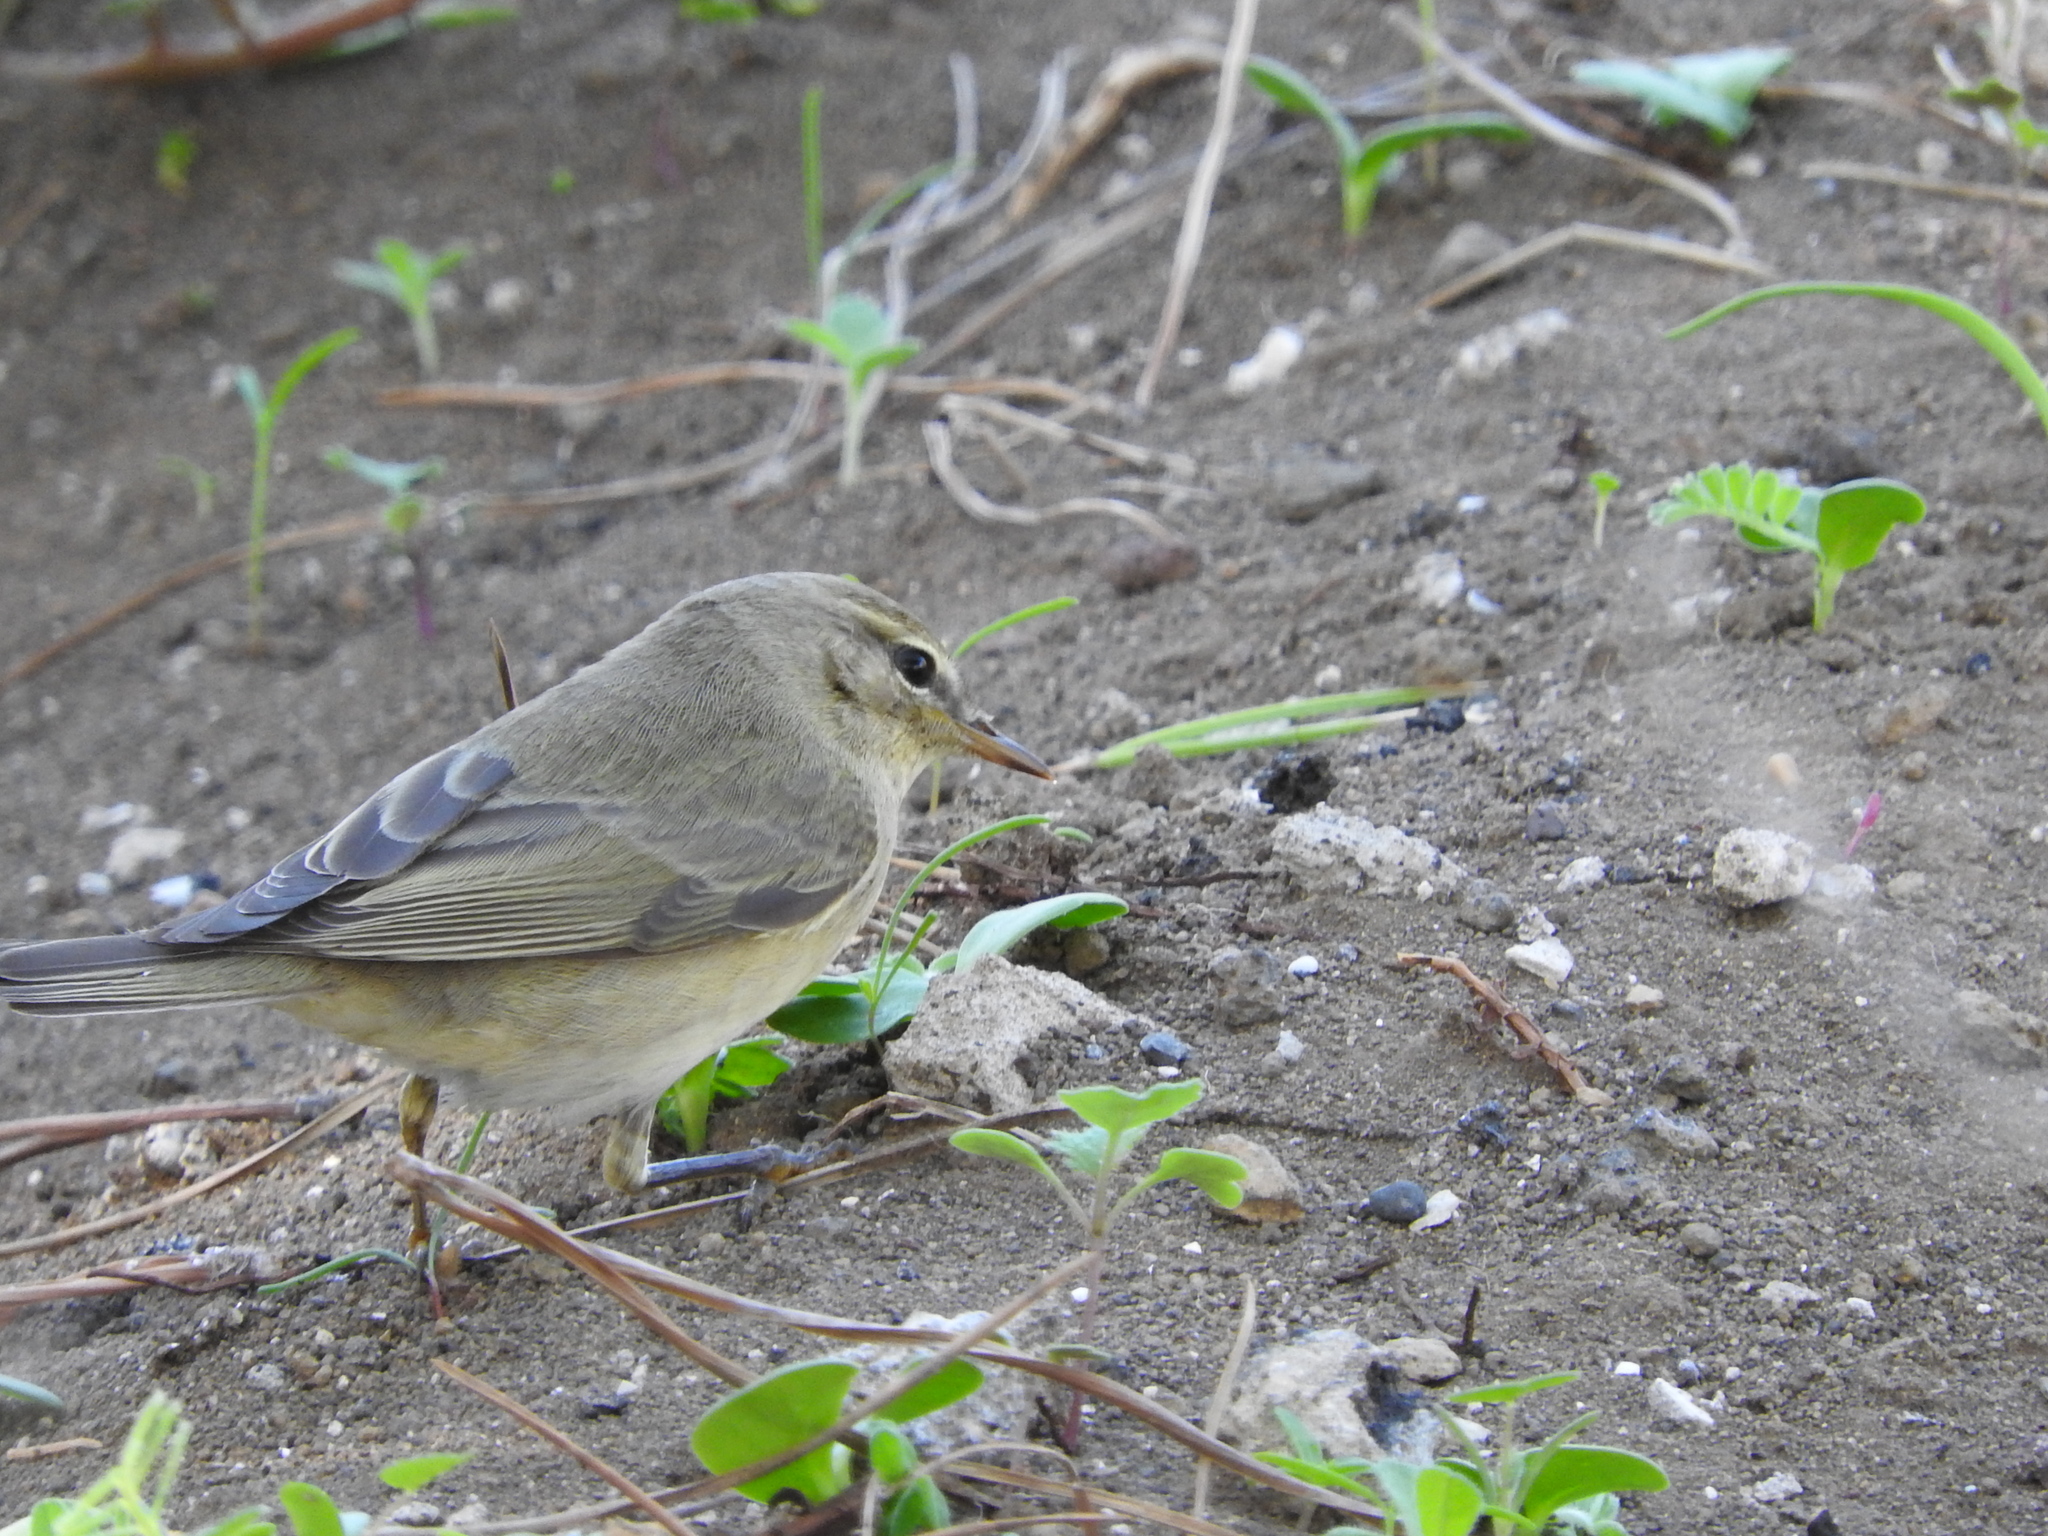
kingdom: Animalia
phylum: Chordata
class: Aves
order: Passeriformes
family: Phylloscopidae
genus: Phylloscopus
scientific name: Phylloscopus trochilus
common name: Willow warbler
